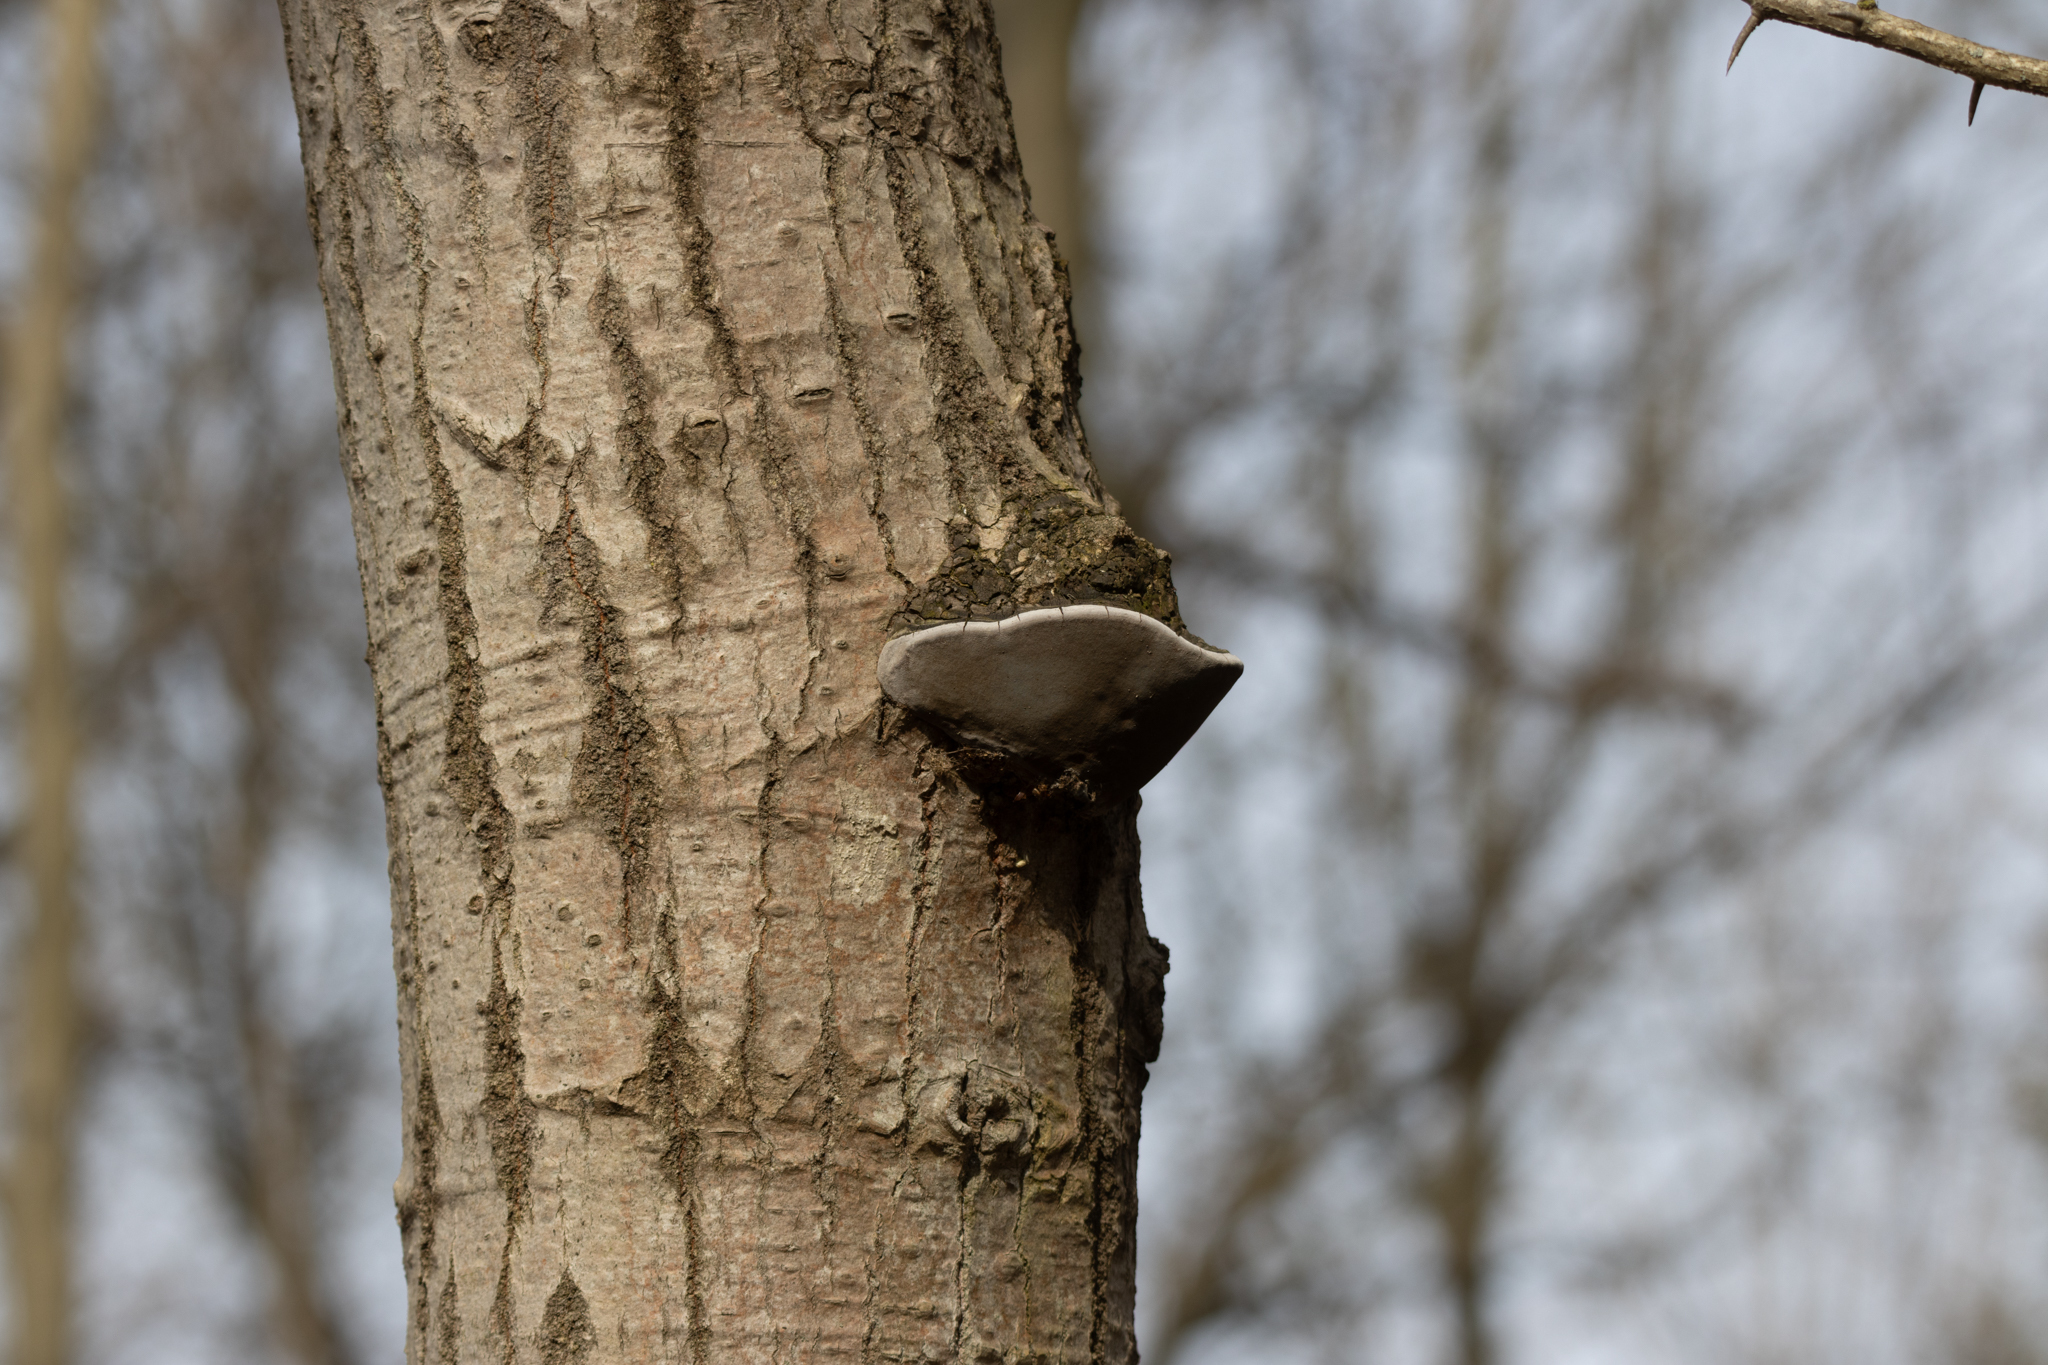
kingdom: Fungi
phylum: Basidiomycota
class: Agaricomycetes
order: Hymenochaetales
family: Hymenochaetaceae
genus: Phellinus
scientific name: Phellinus tremulae
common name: Aspen bracket
